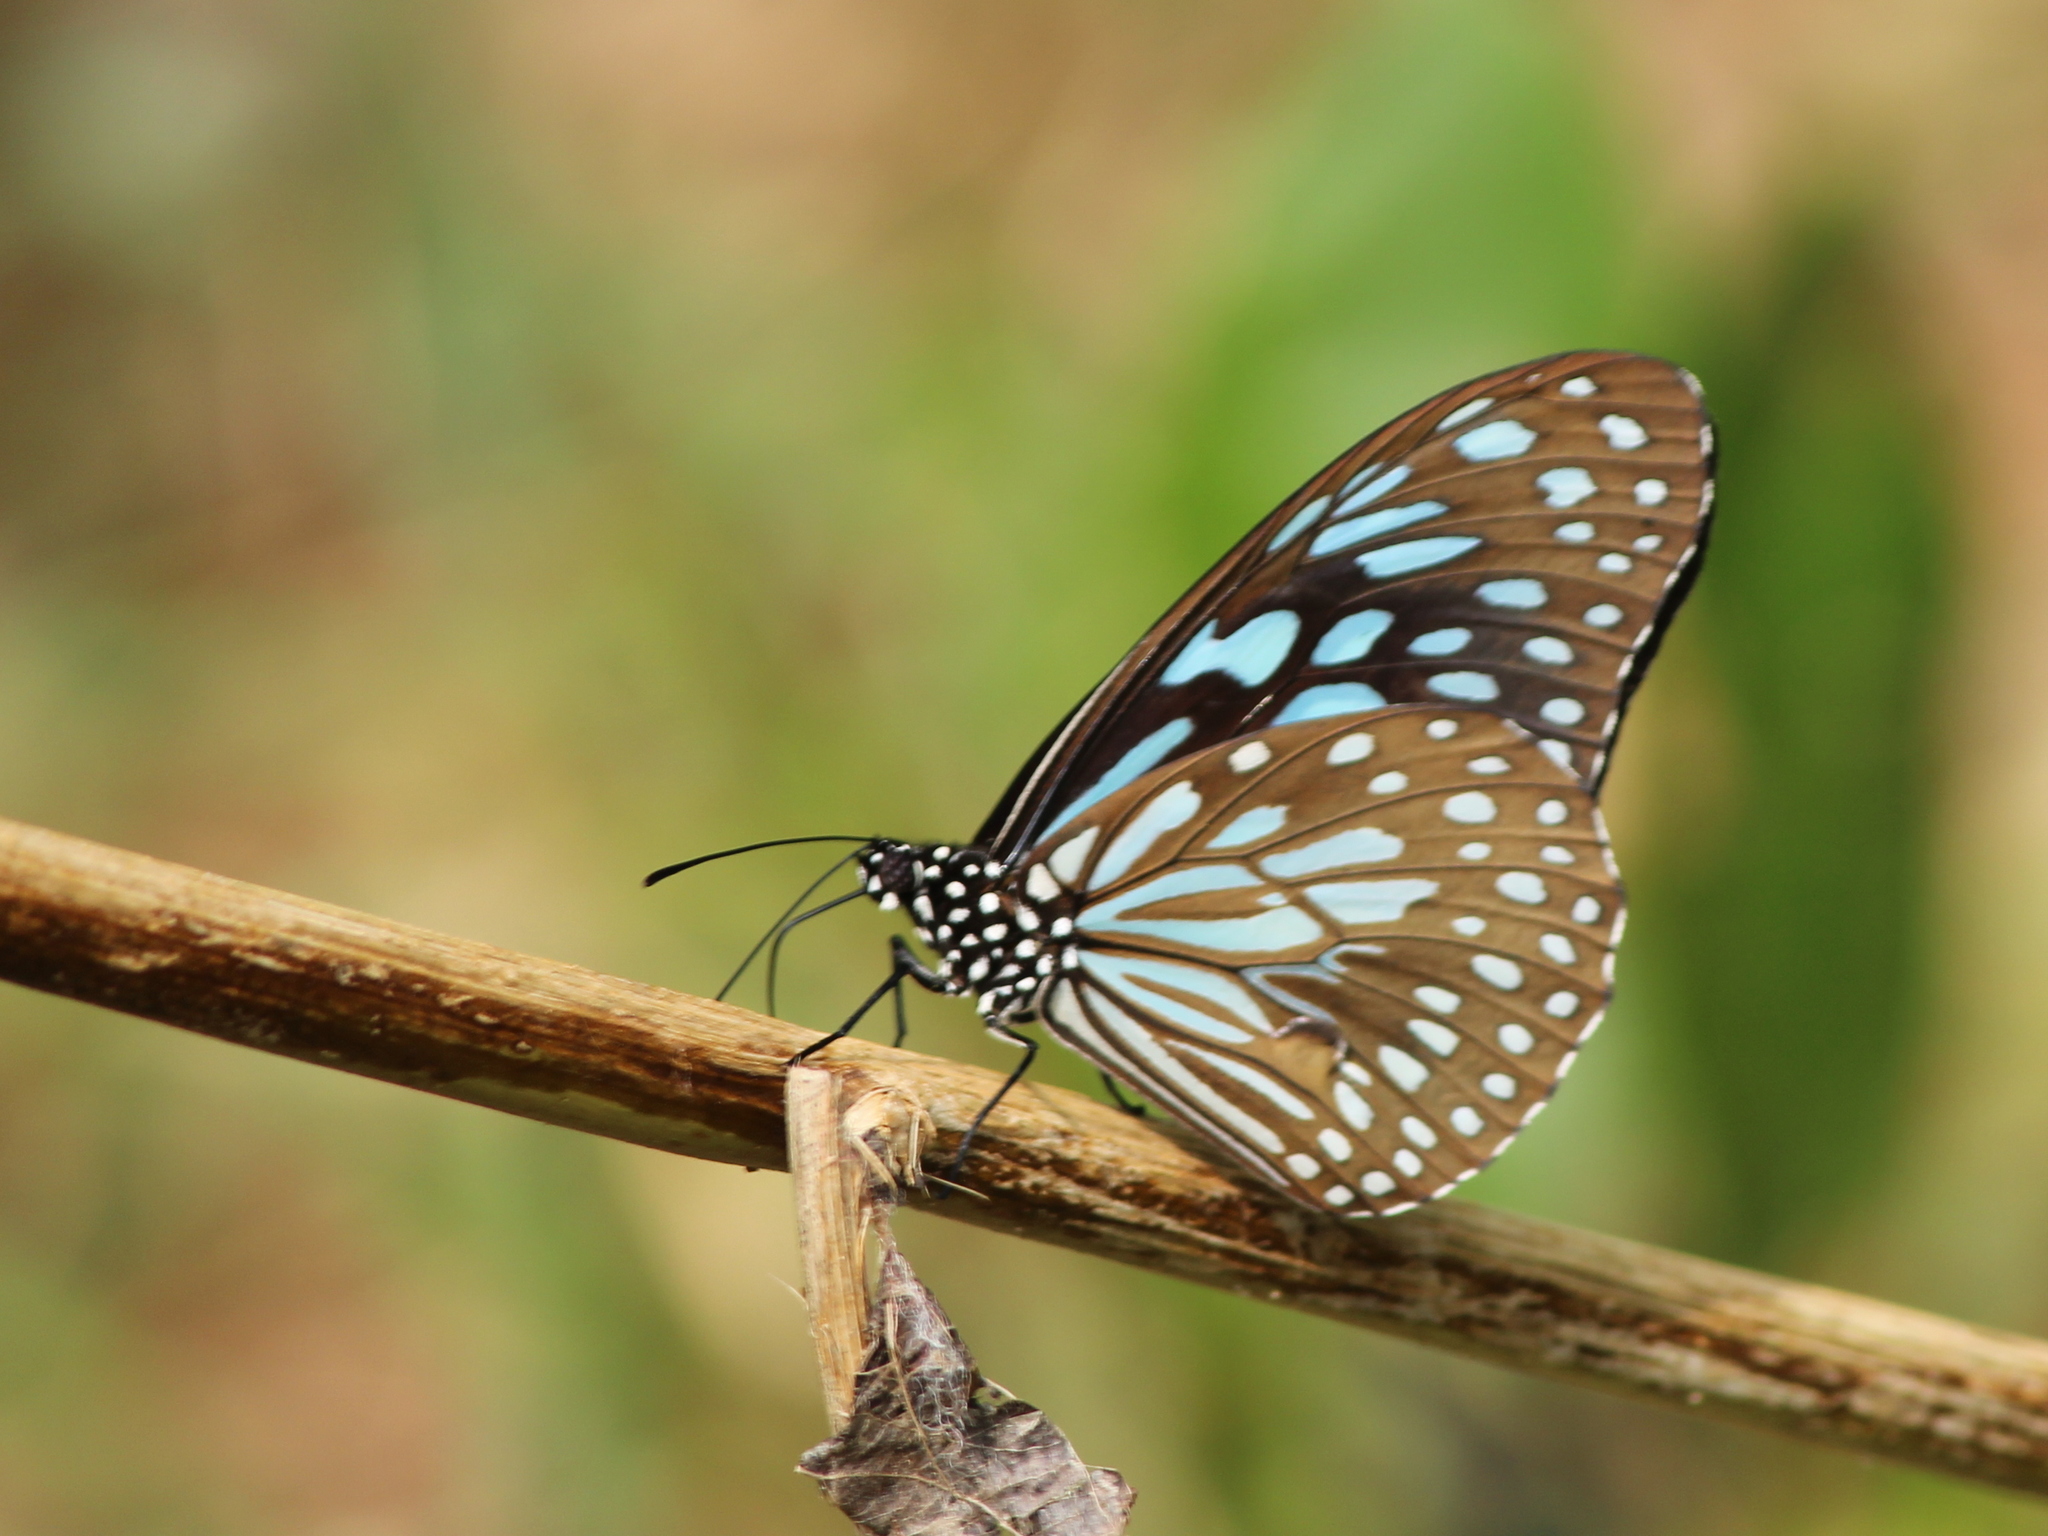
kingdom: Animalia
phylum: Arthropoda
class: Insecta
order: Lepidoptera
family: Nymphalidae
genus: Tirumala
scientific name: Tirumala septentrionis
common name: Dark blue tiger butterfly
